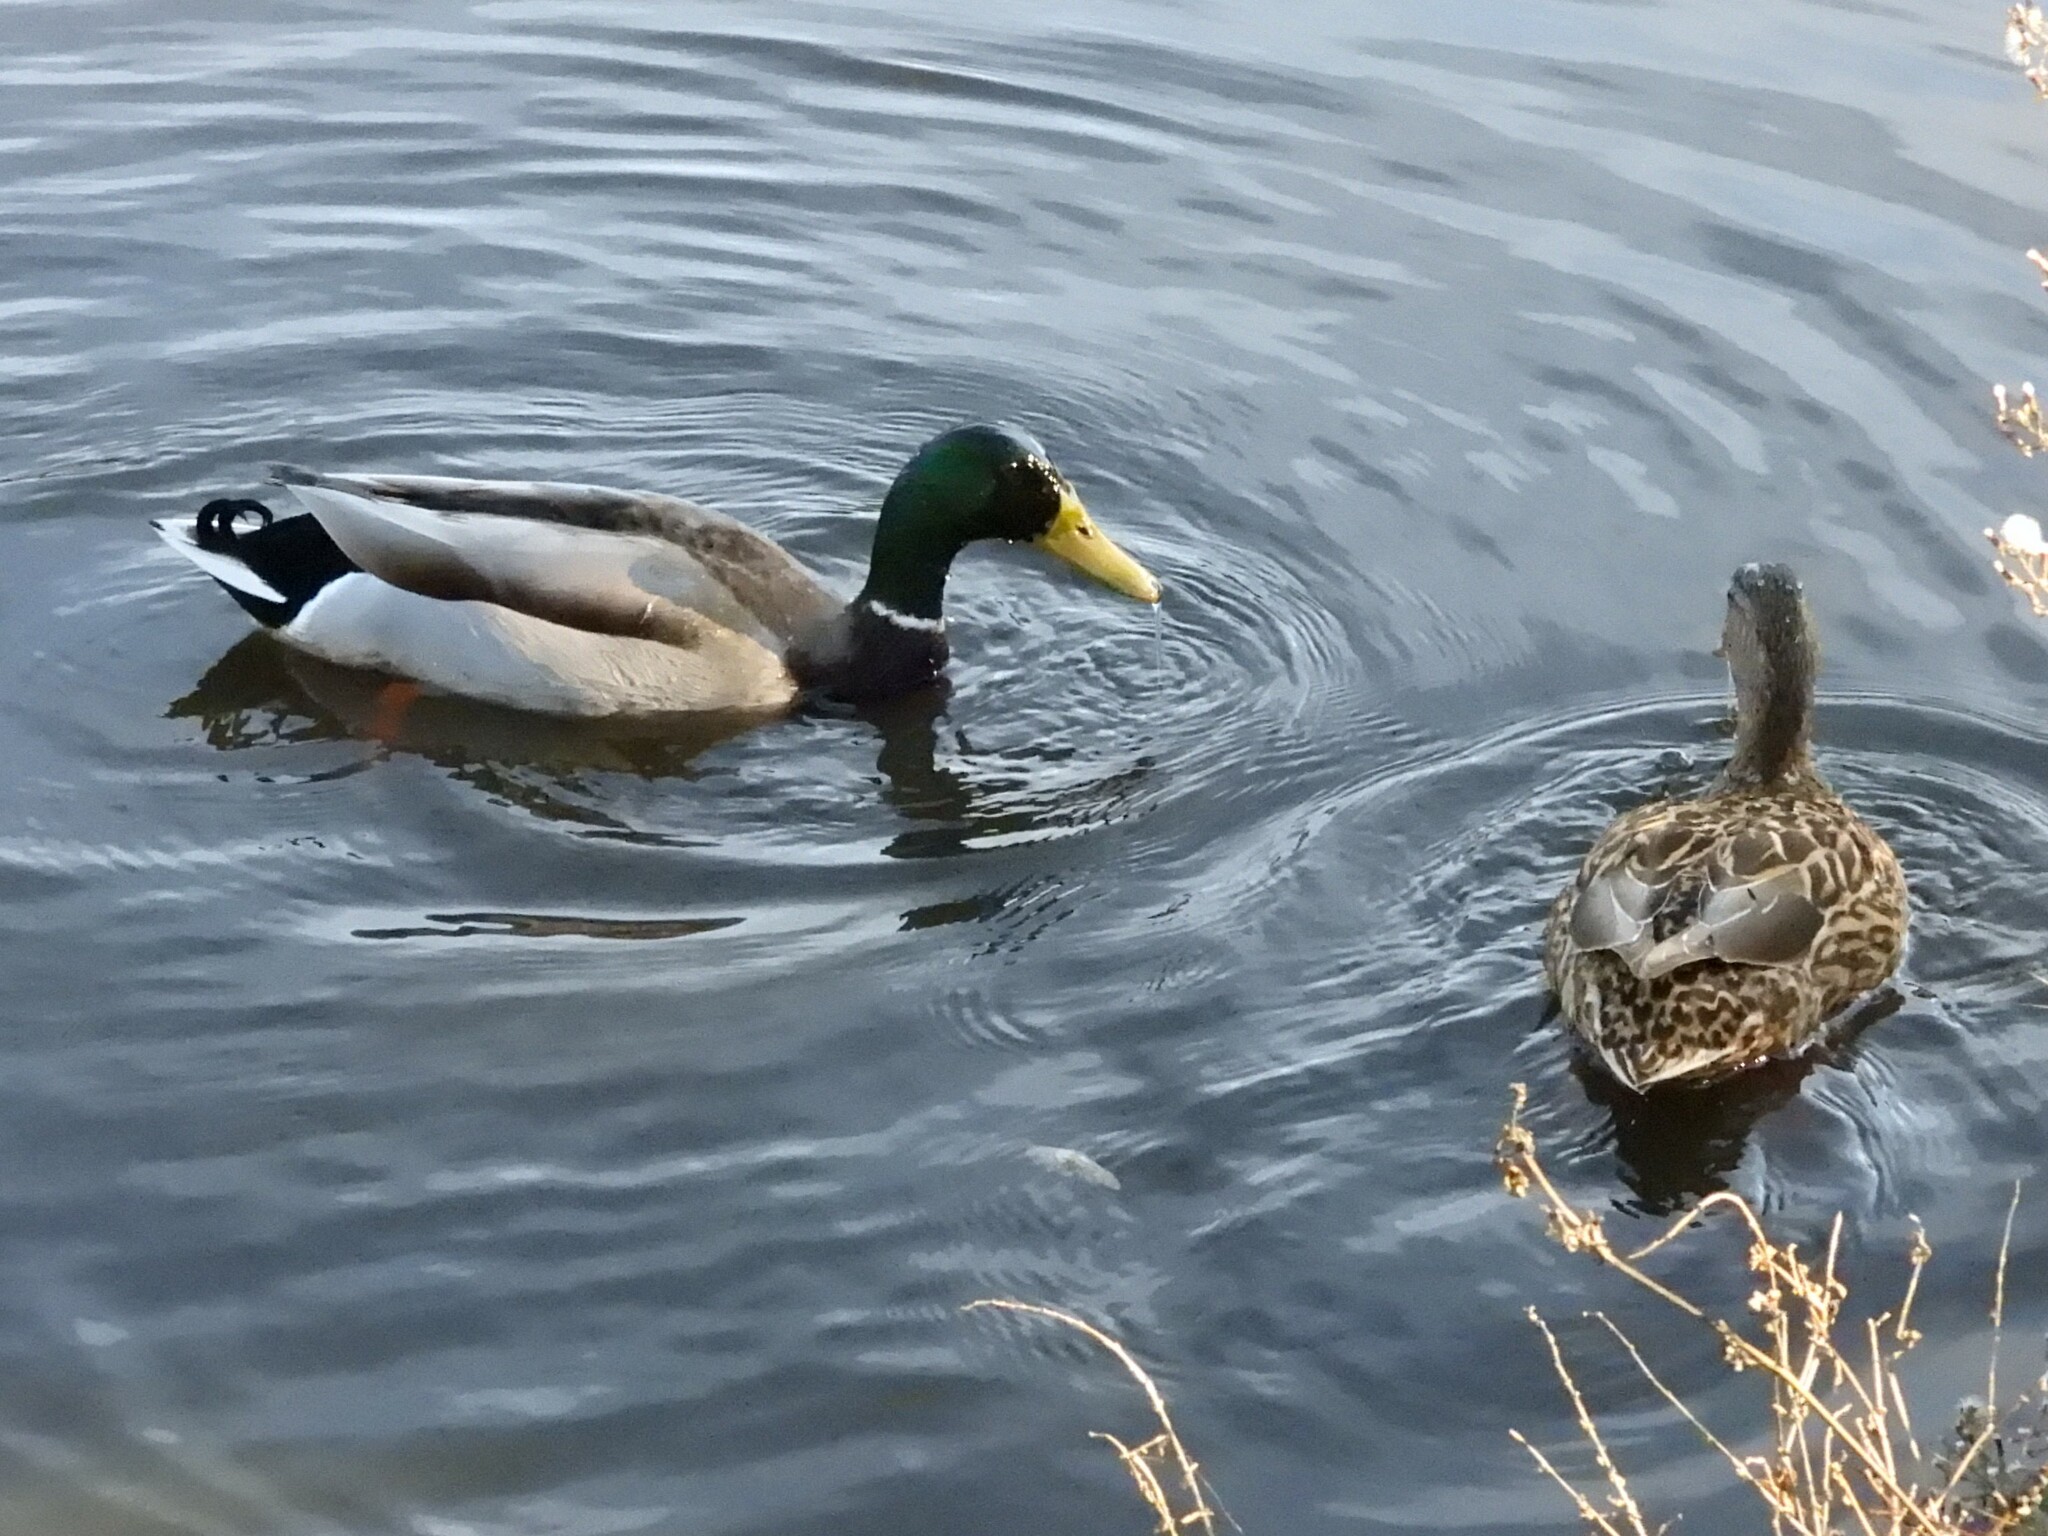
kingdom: Animalia
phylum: Chordata
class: Aves
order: Anseriformes
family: Anatidae
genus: Anas
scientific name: Anas platyrhynchos
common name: Mallard
